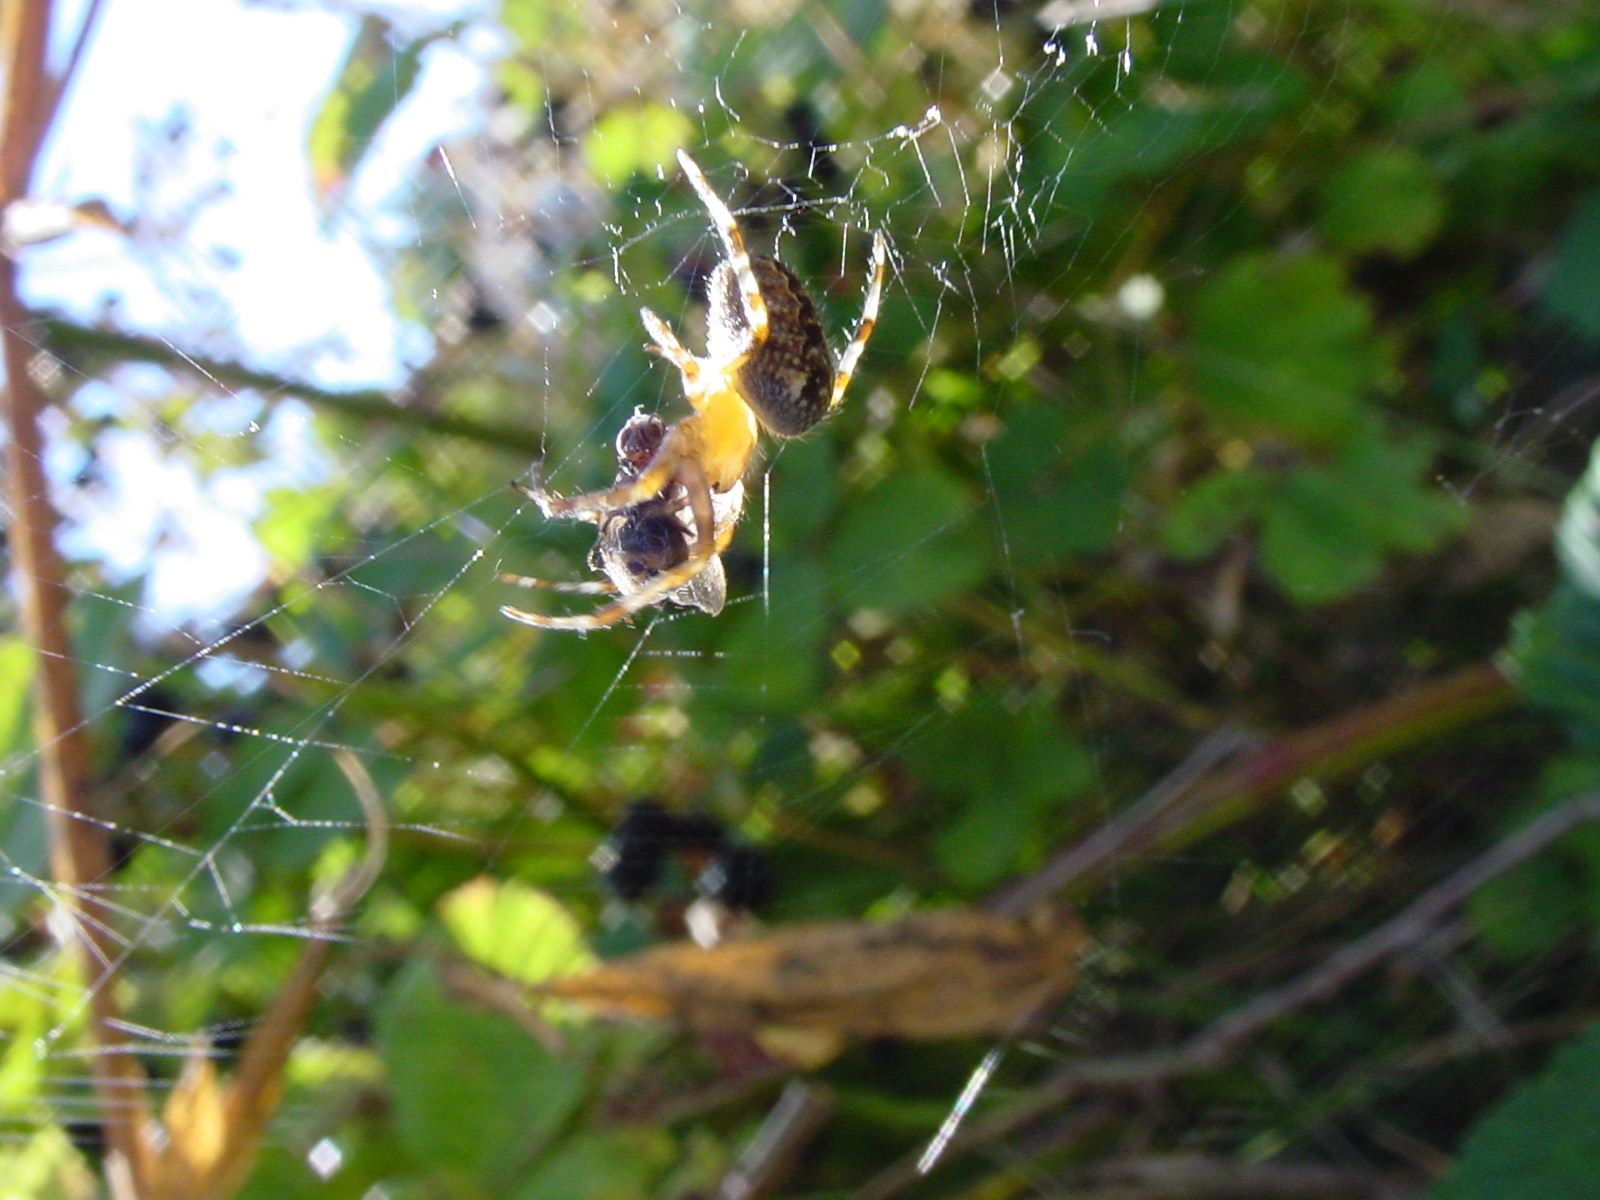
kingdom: Animalia
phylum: Arthropoda
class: Arachnida
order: Araneae
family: Araneidae
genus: Araneus
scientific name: Araneus diadematus
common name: Cross orbweaver
